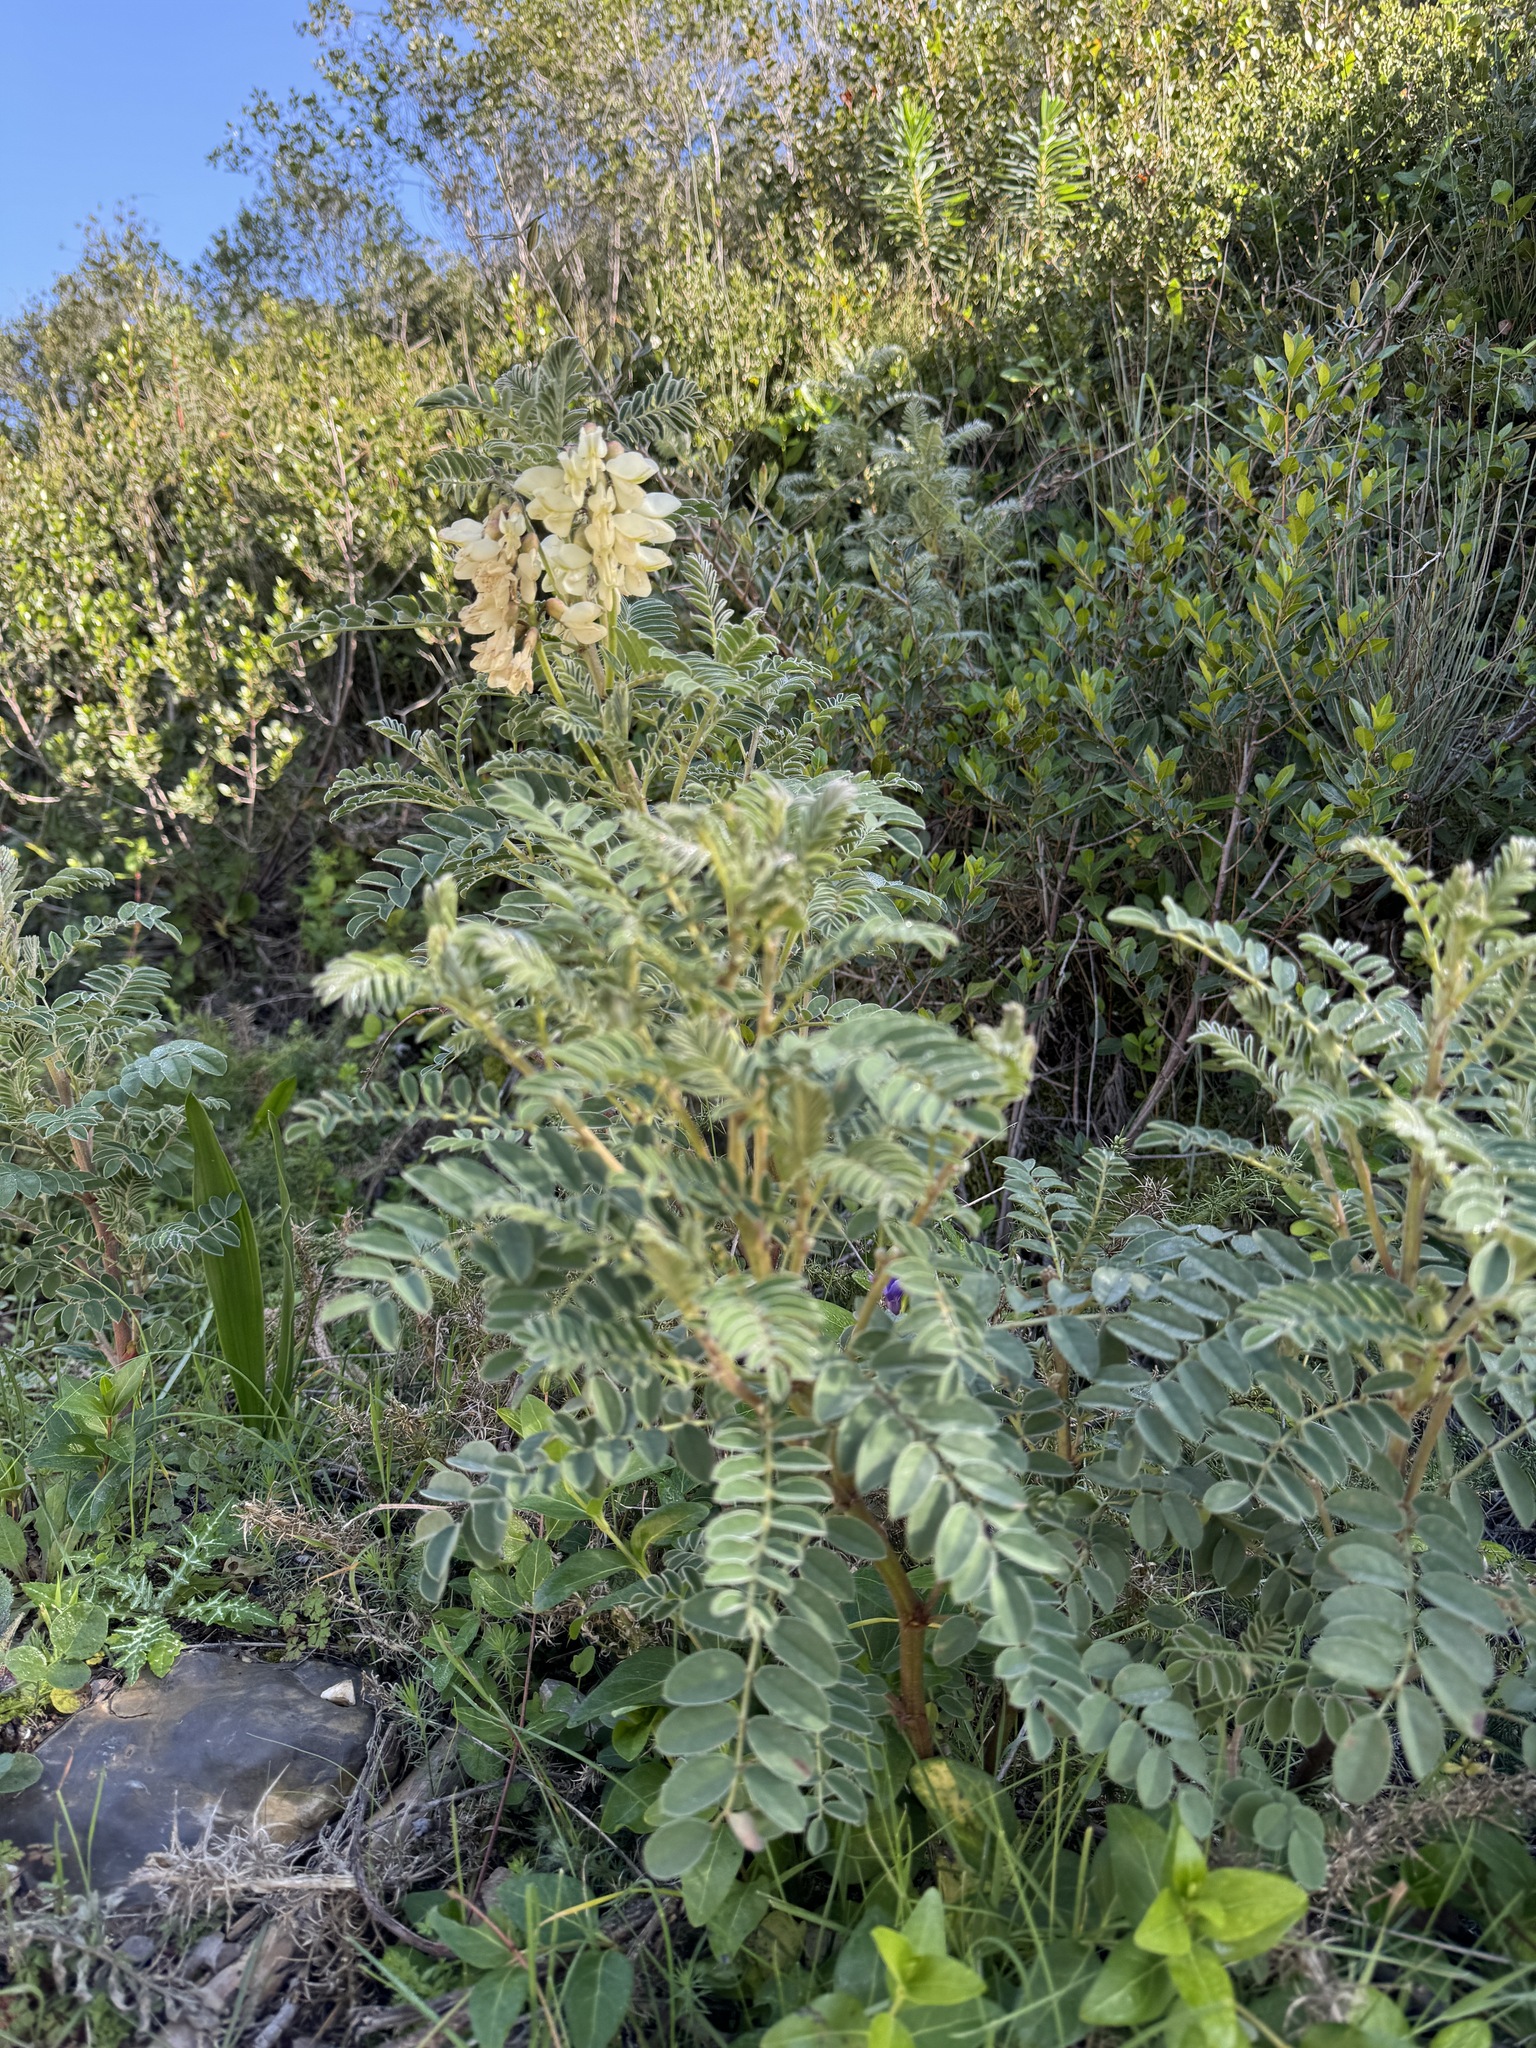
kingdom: Plantae
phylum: Tracheophyta
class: Magnoliopsida
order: Fabales
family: Fabaceae
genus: Erophaca
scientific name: Erophaca baetica
